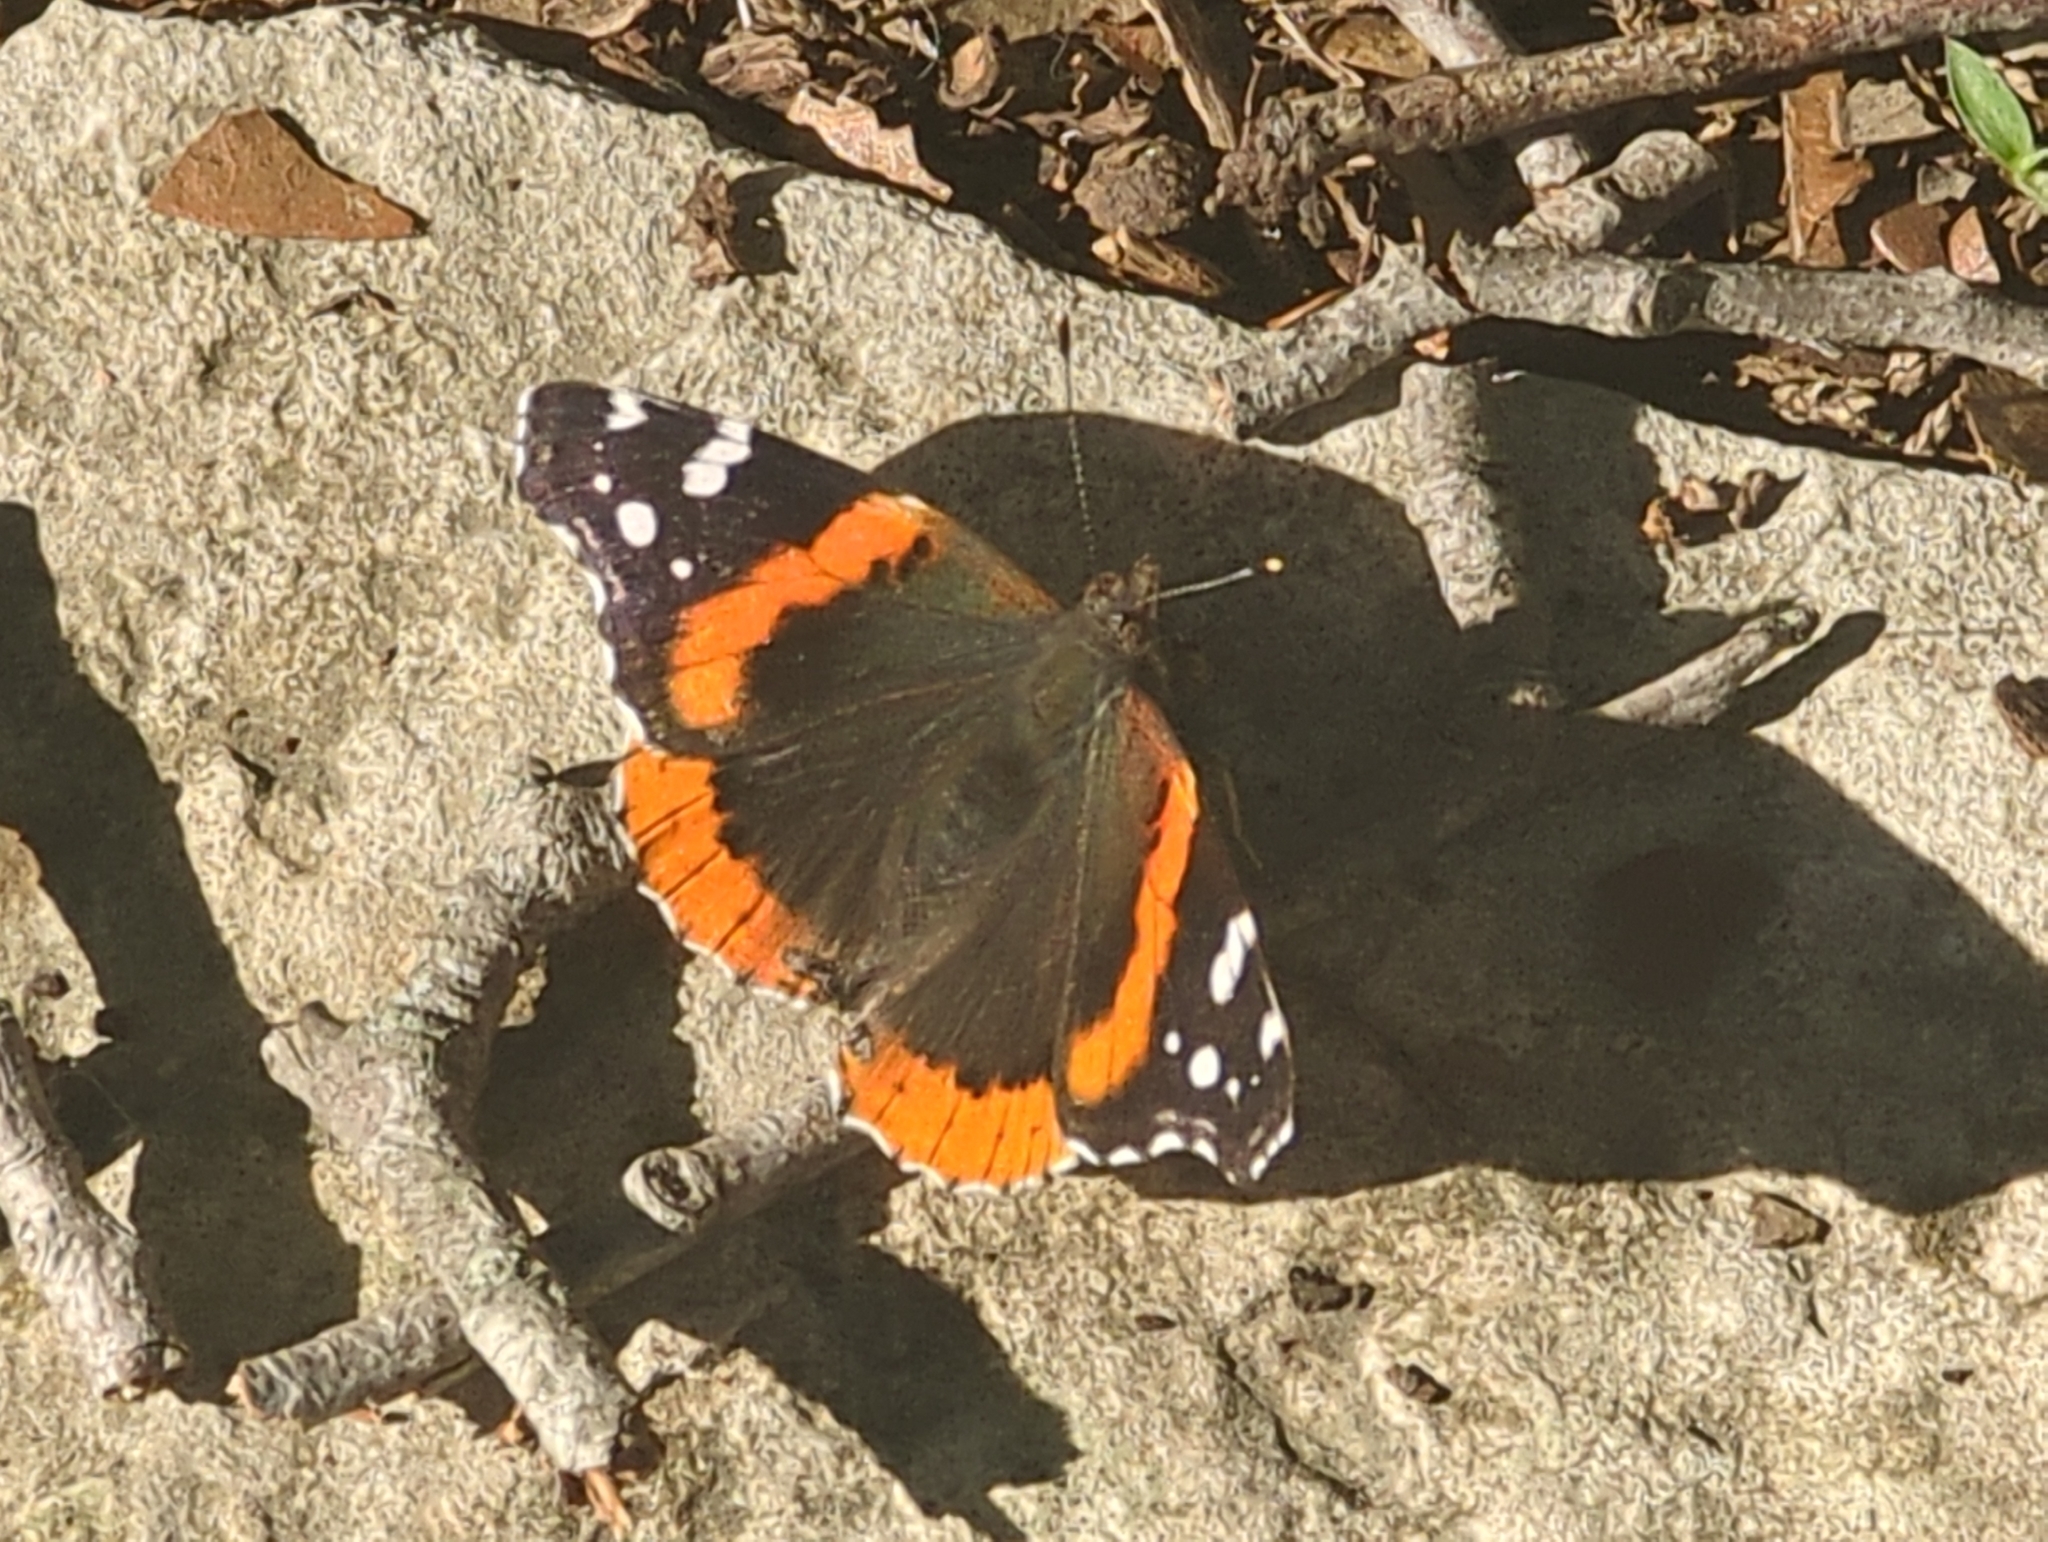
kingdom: Animalia
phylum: Arthropoda
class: Insecta
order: Lepidoptera
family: Nymphalidae
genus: Vanessa
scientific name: Vanessa atalanta
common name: Red admiral
